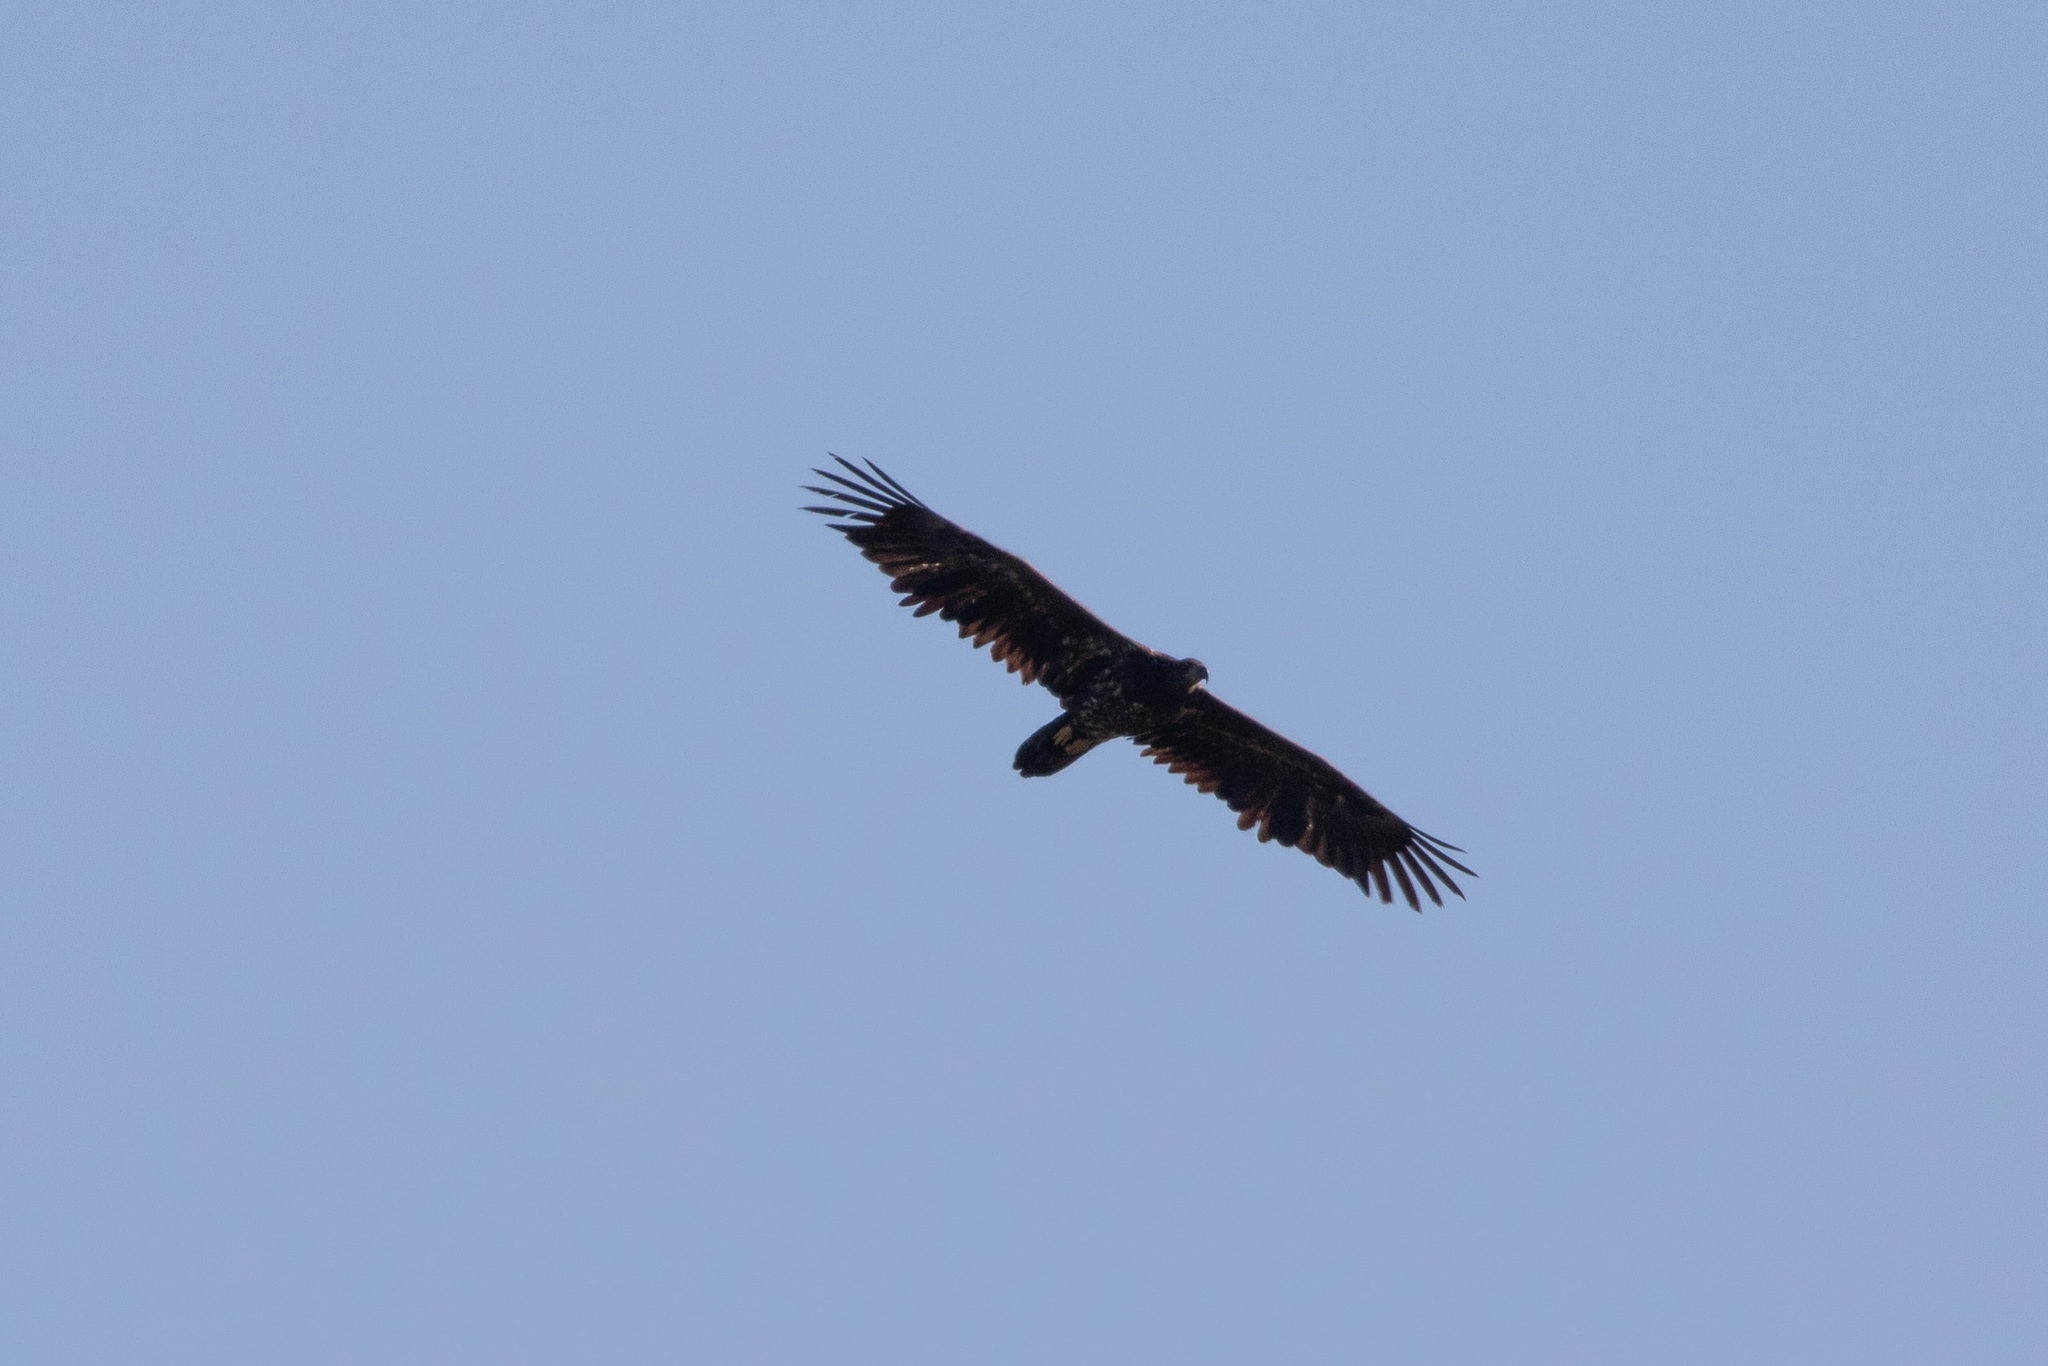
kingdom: Animalia
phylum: Chordata
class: Aves
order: Accipitriformes
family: Accipitridae
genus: Haliaeetus
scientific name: Haliaeetus albicilla
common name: White-tailed eagle
